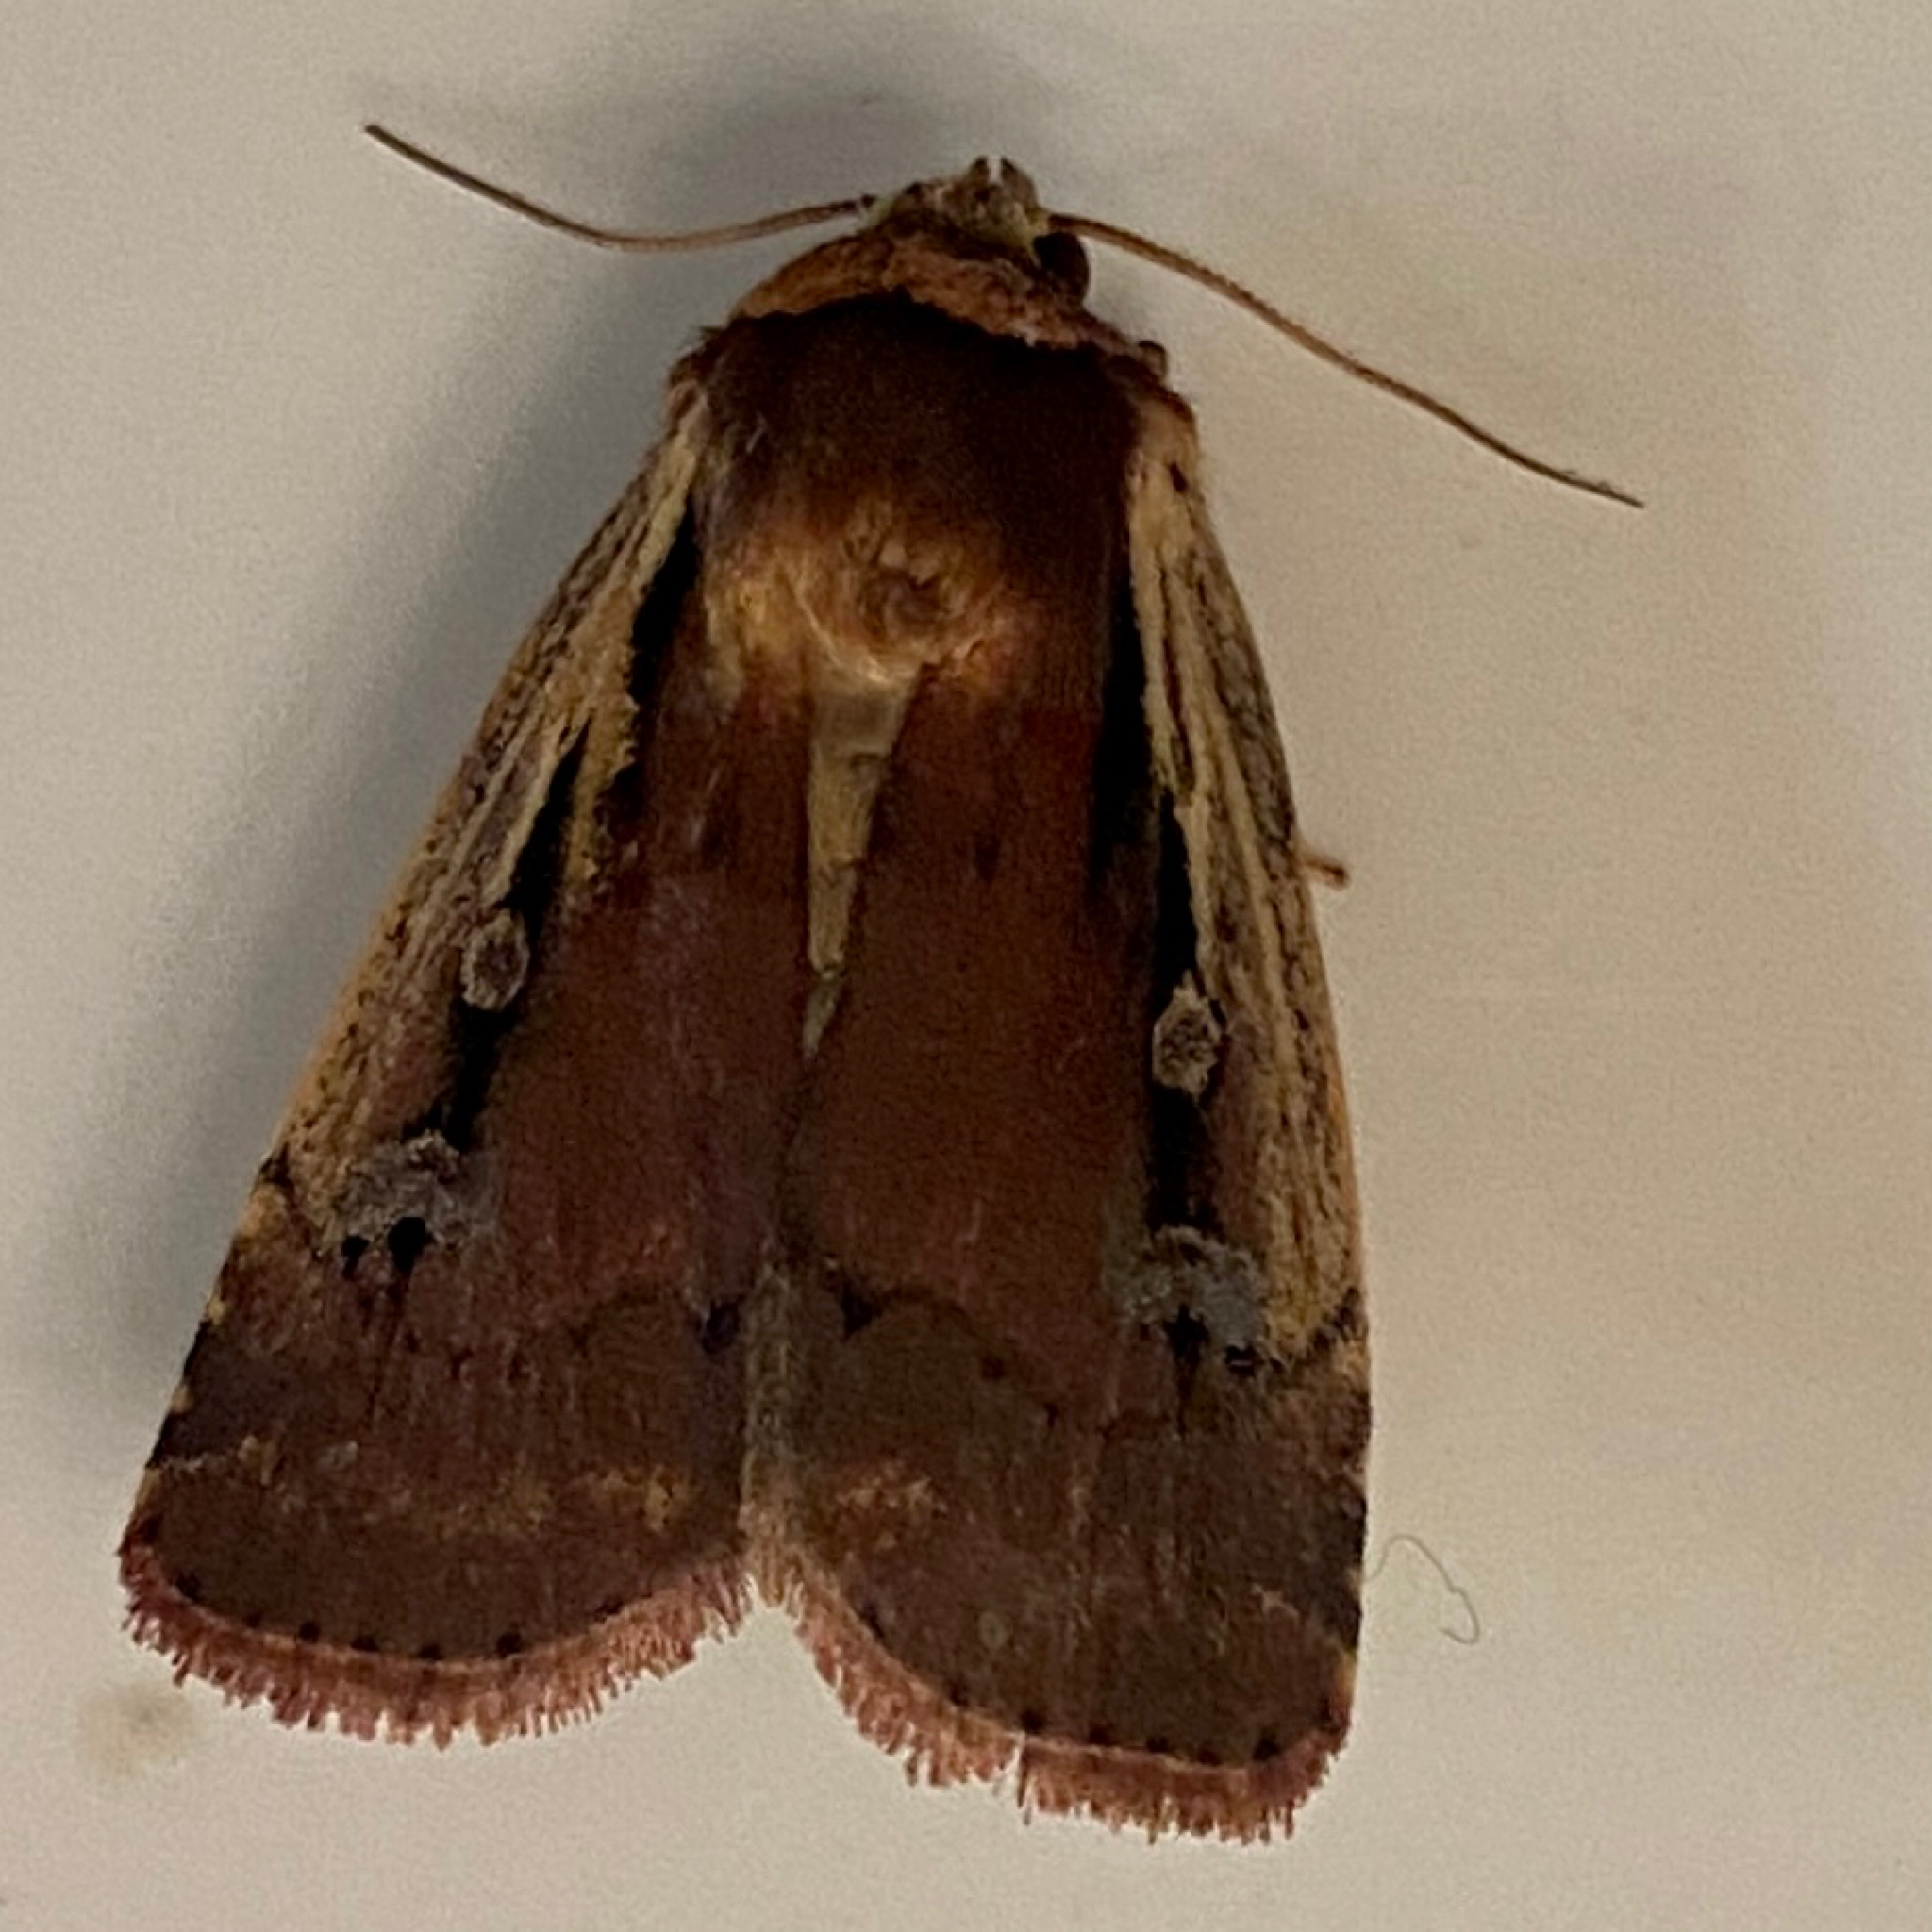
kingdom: Animalia
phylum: Arthropoda
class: Insecta
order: Lepidoptera
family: Noctuidae
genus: Ochropleura
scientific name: Ochropleura implecta
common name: Flame-shouldered dart
